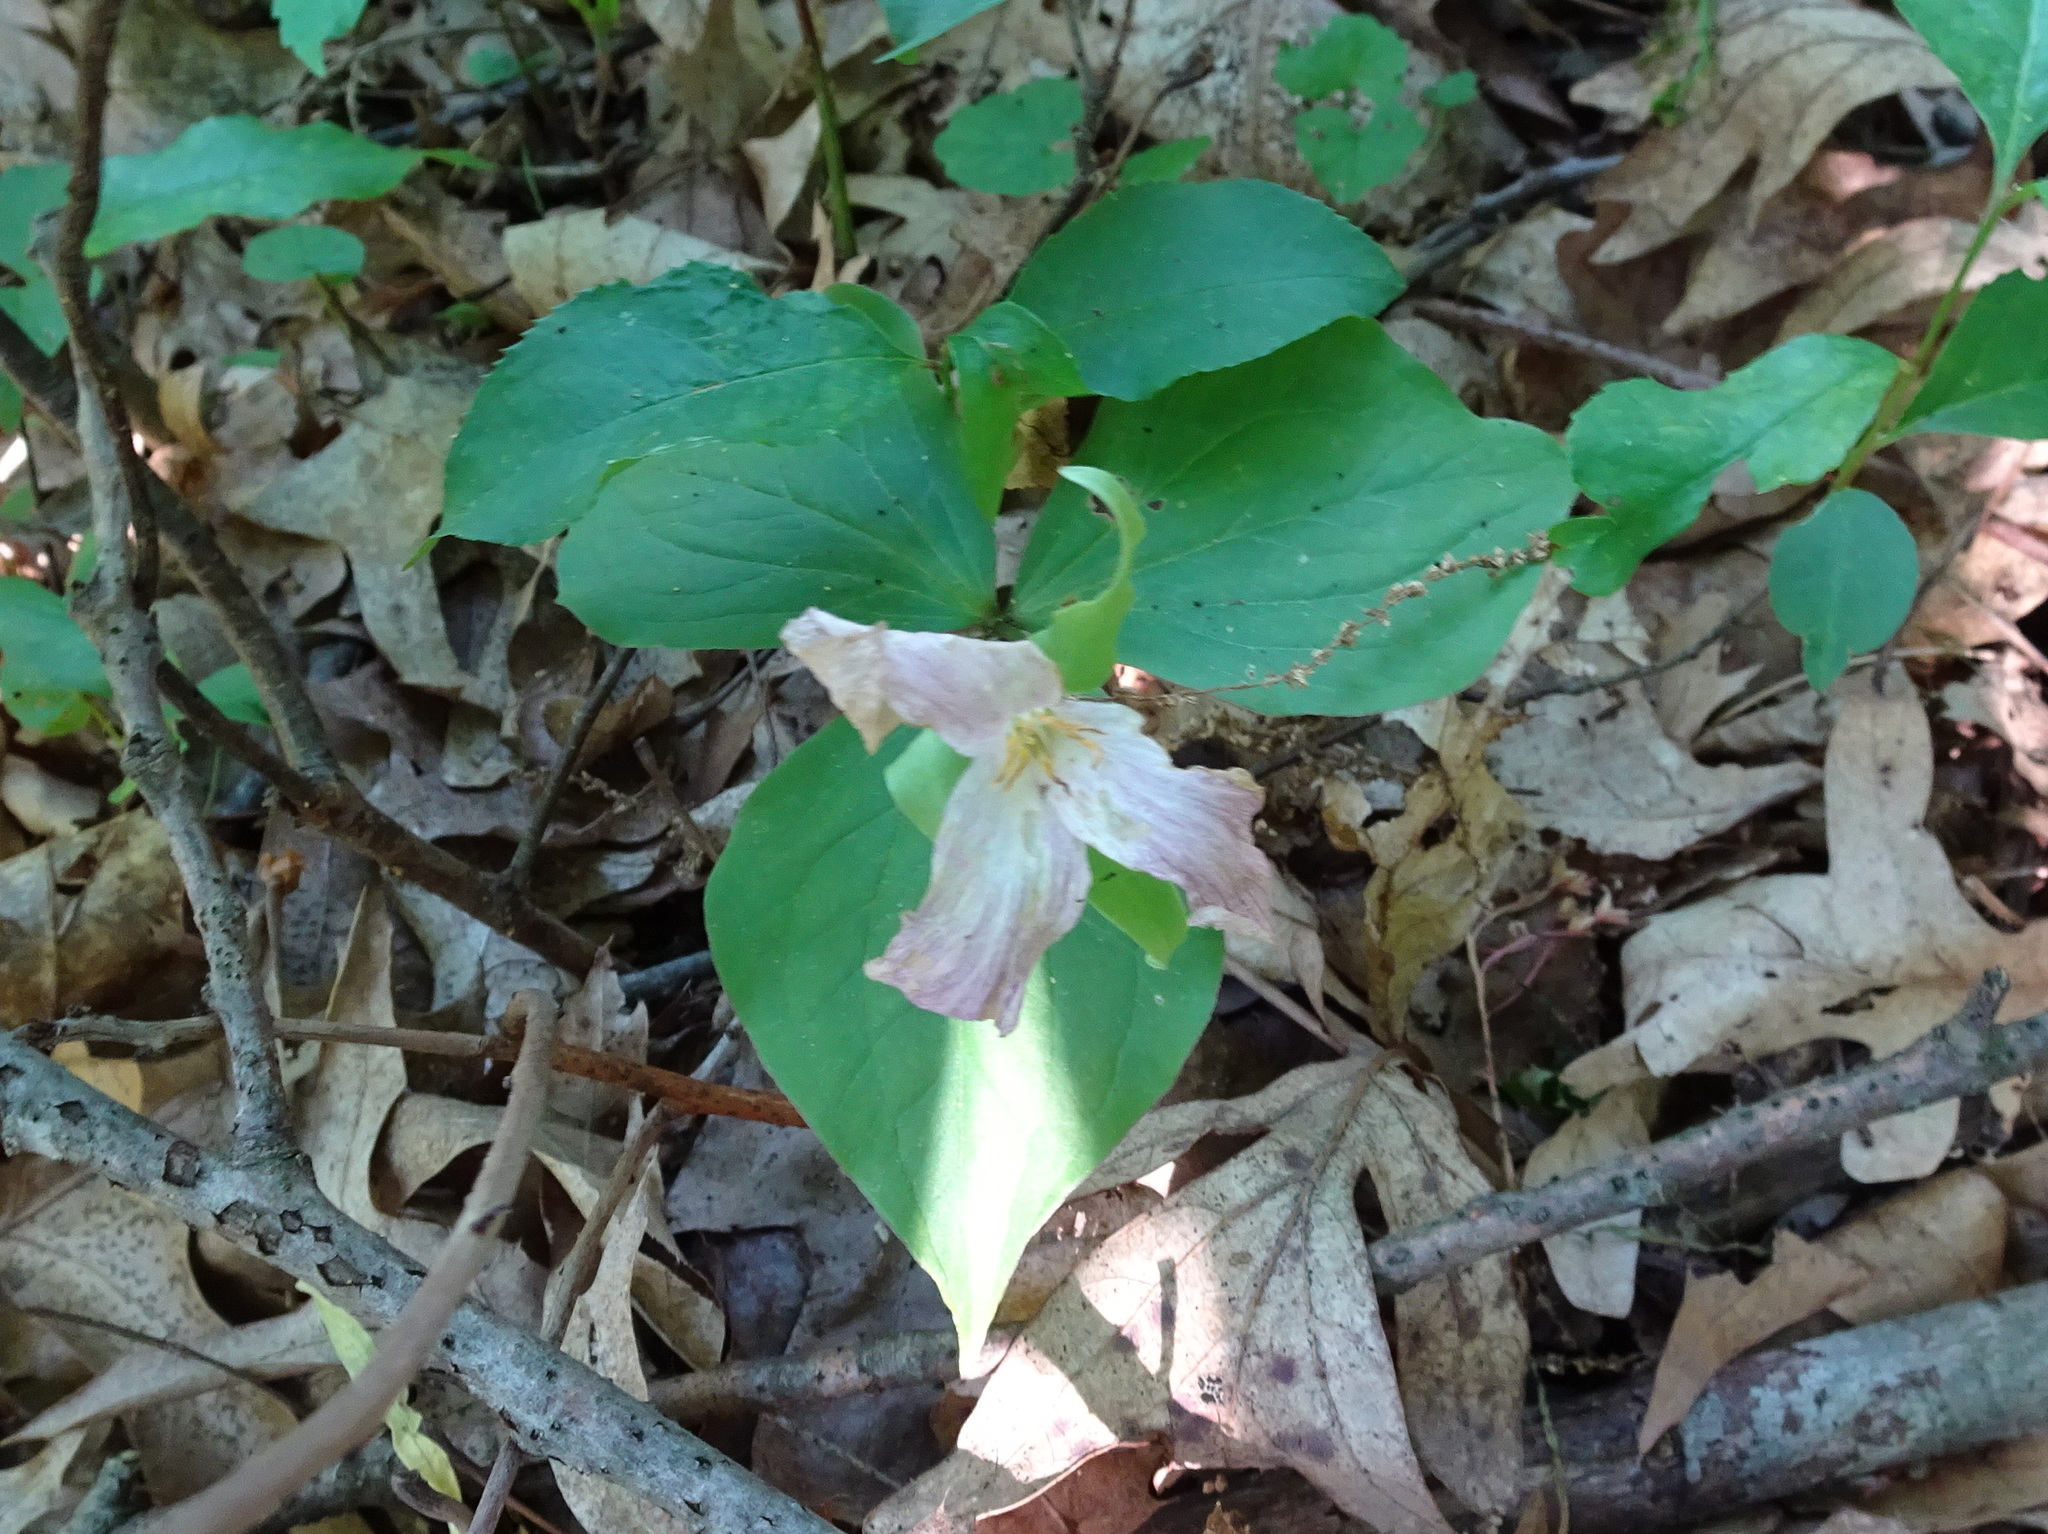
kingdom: Plantae
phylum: Tracheophyta
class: Liliopsida
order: Liliales
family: Melanthiaceae
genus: Trillium
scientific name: Trillium grandiflorum
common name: Great white trillium
